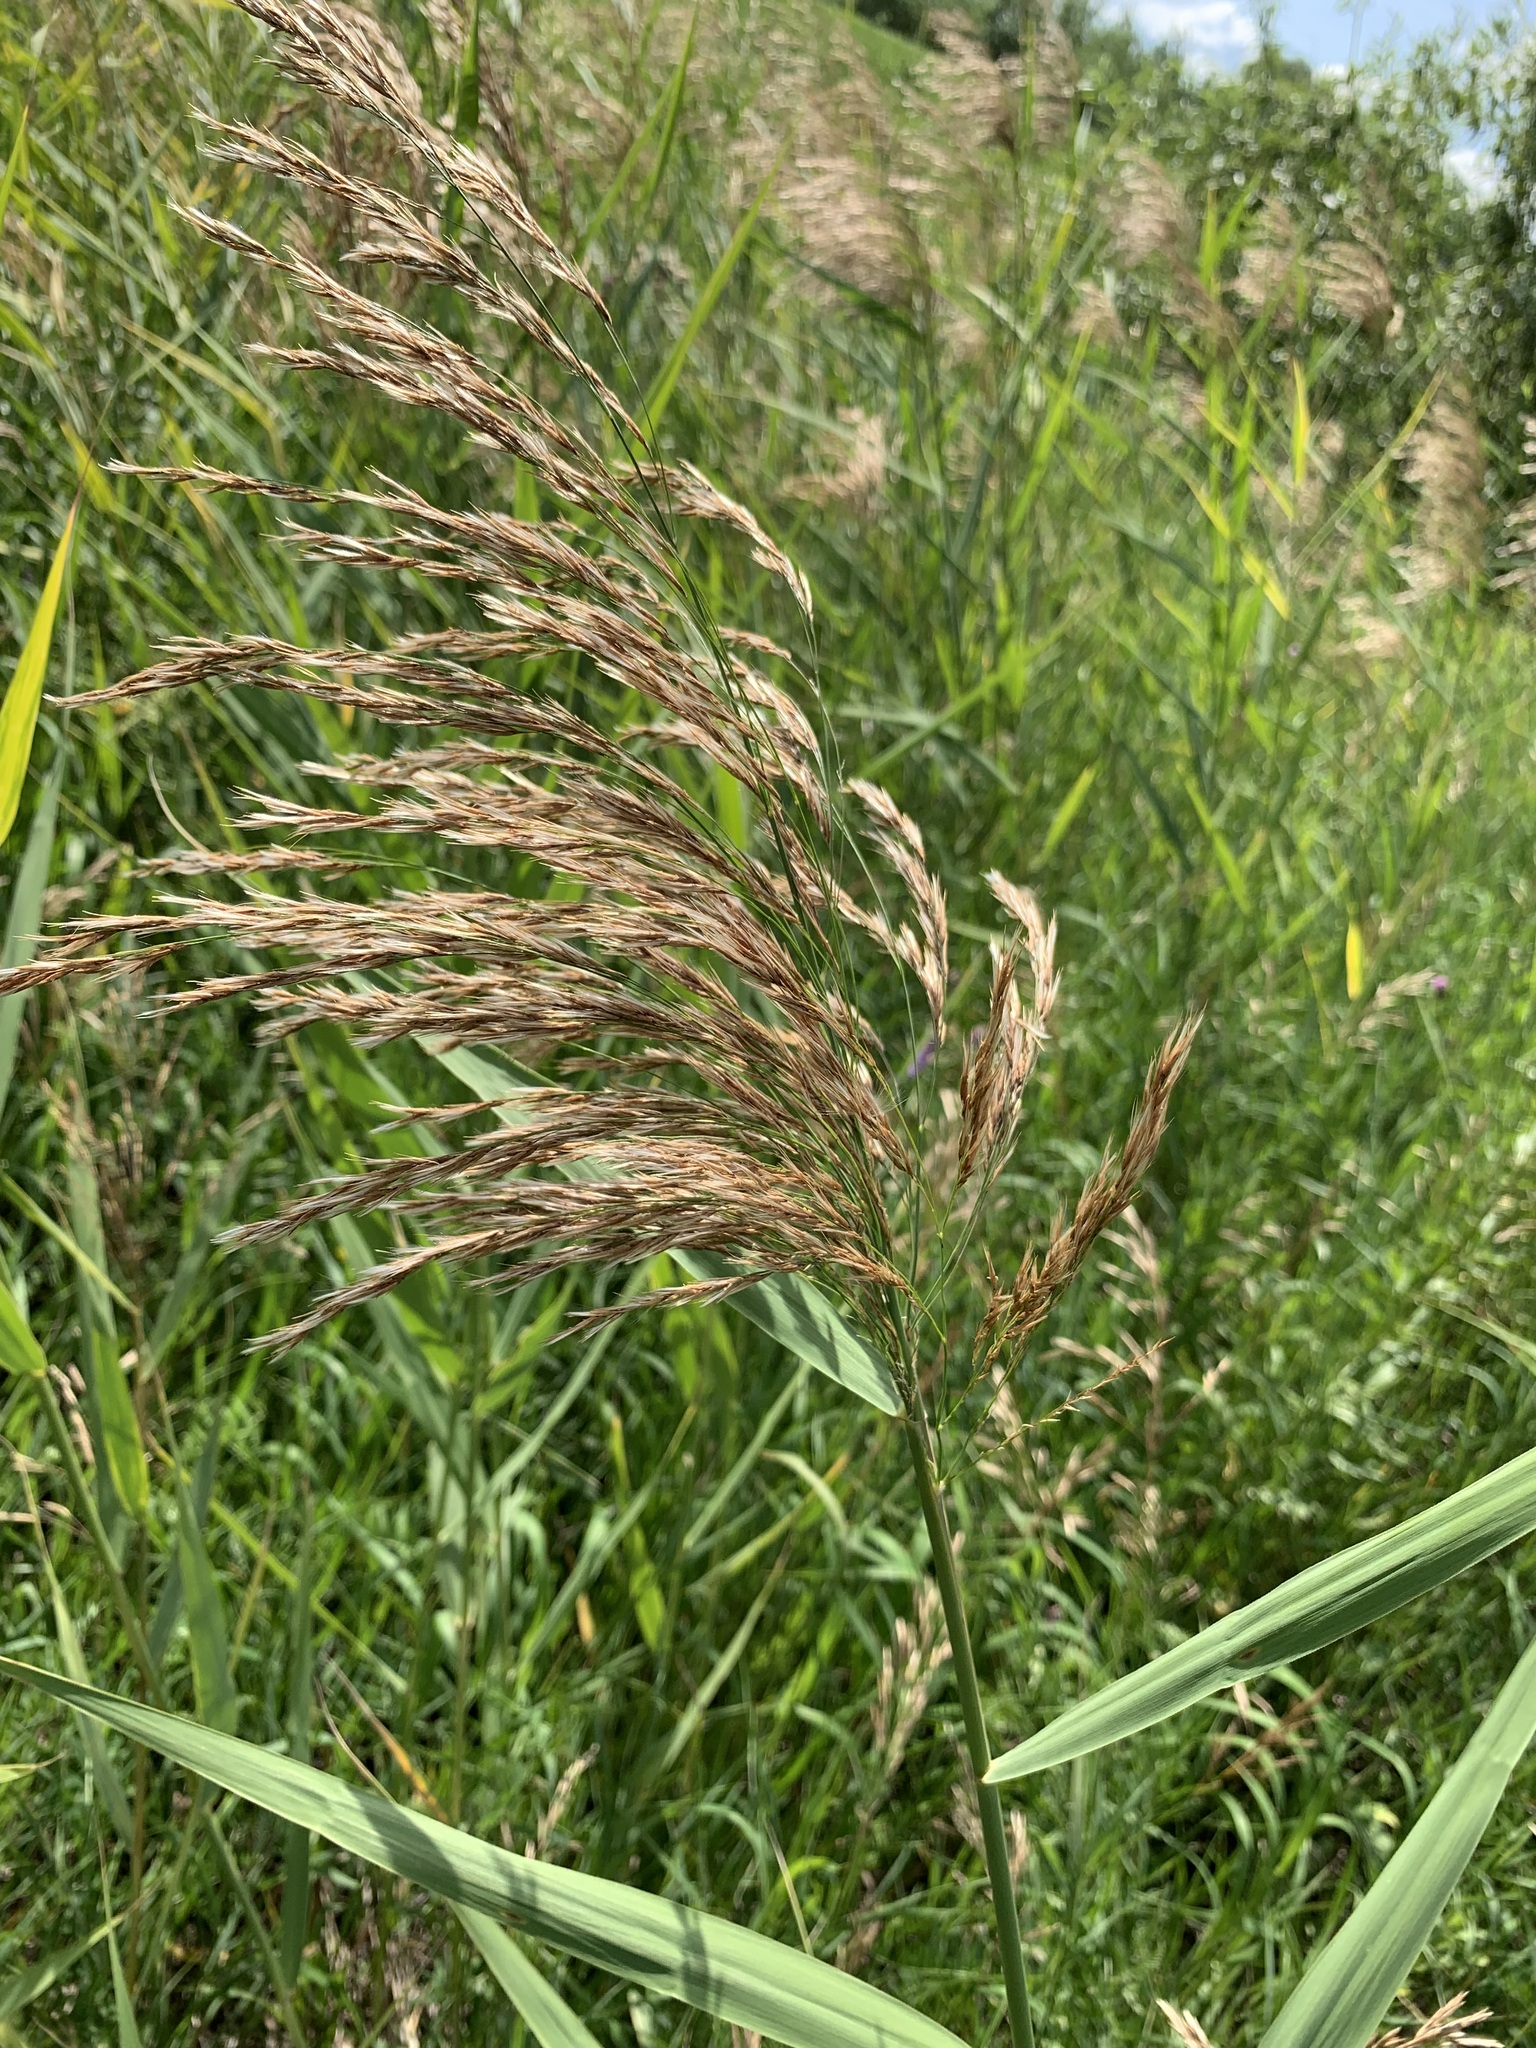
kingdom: Plantae
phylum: Tracheophyta
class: Liliopsida
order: Poales
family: Poaceae
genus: Phragmites
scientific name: Phragmites australis
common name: Common reed
